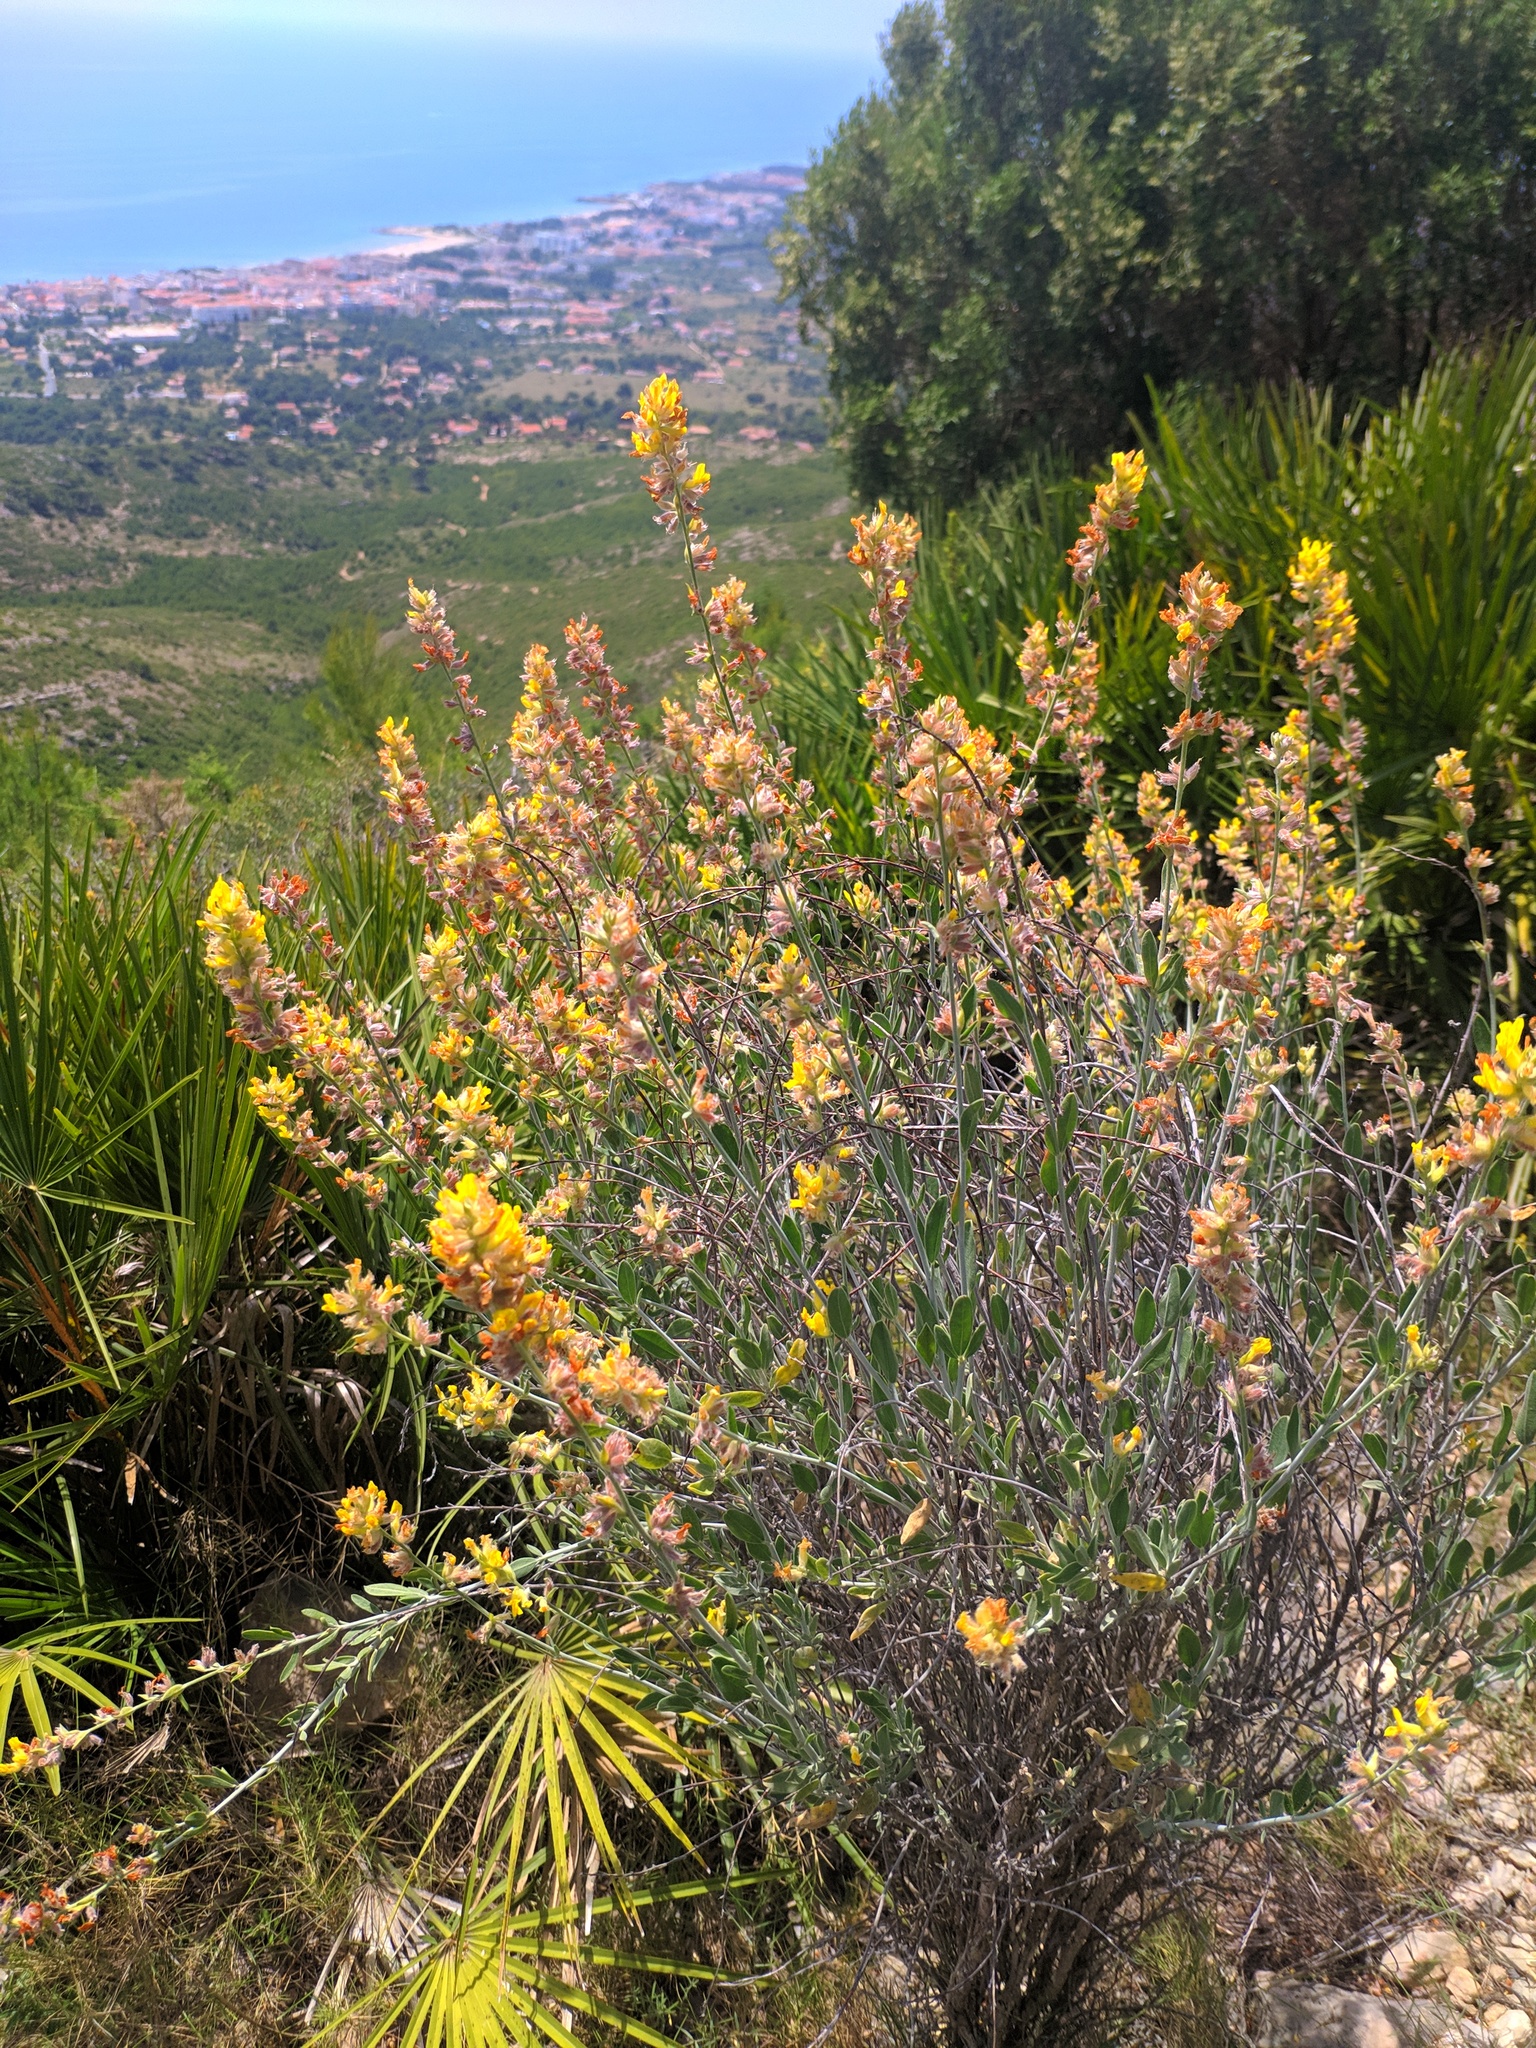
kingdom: Plantae
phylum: Tracheophyta
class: Magnoliopsida
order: Fabales
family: Fabaceae
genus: Anthyllis
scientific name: Anthyllis cytisoides
